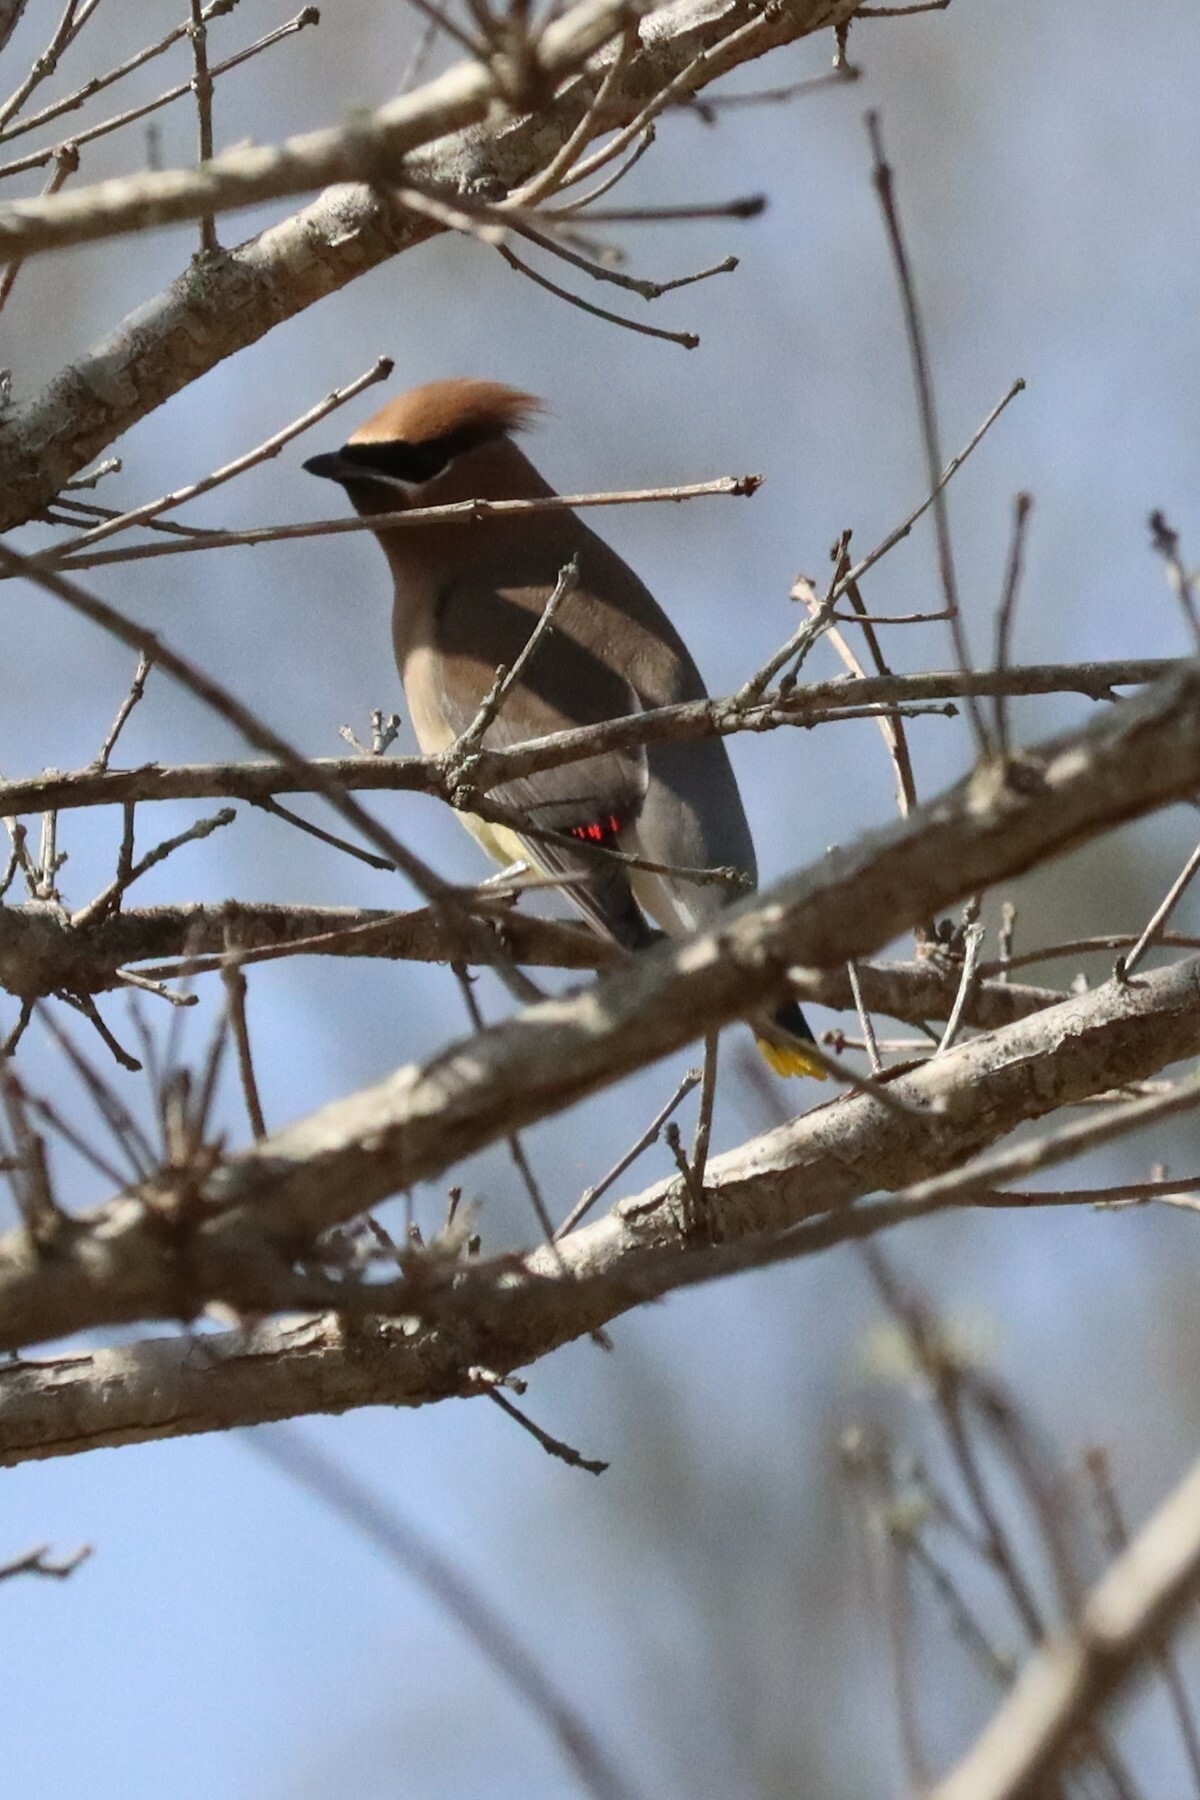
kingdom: Animalia
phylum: Chordata
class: Aves
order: Passeriformes
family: Bombycillidae
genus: Bombycilla
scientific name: Bombycilla cedrorum
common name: Cedar waxwing
